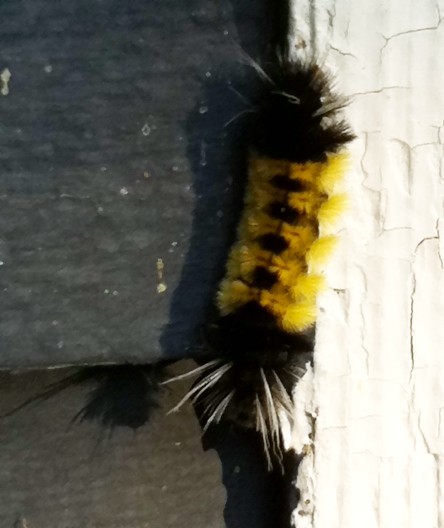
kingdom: Animalia
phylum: Arthropoda
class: Insecta
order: Lepidoptera
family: Erebidae
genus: Lophocampa
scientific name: Lophocampa maculata
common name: Spotted tussock moth
